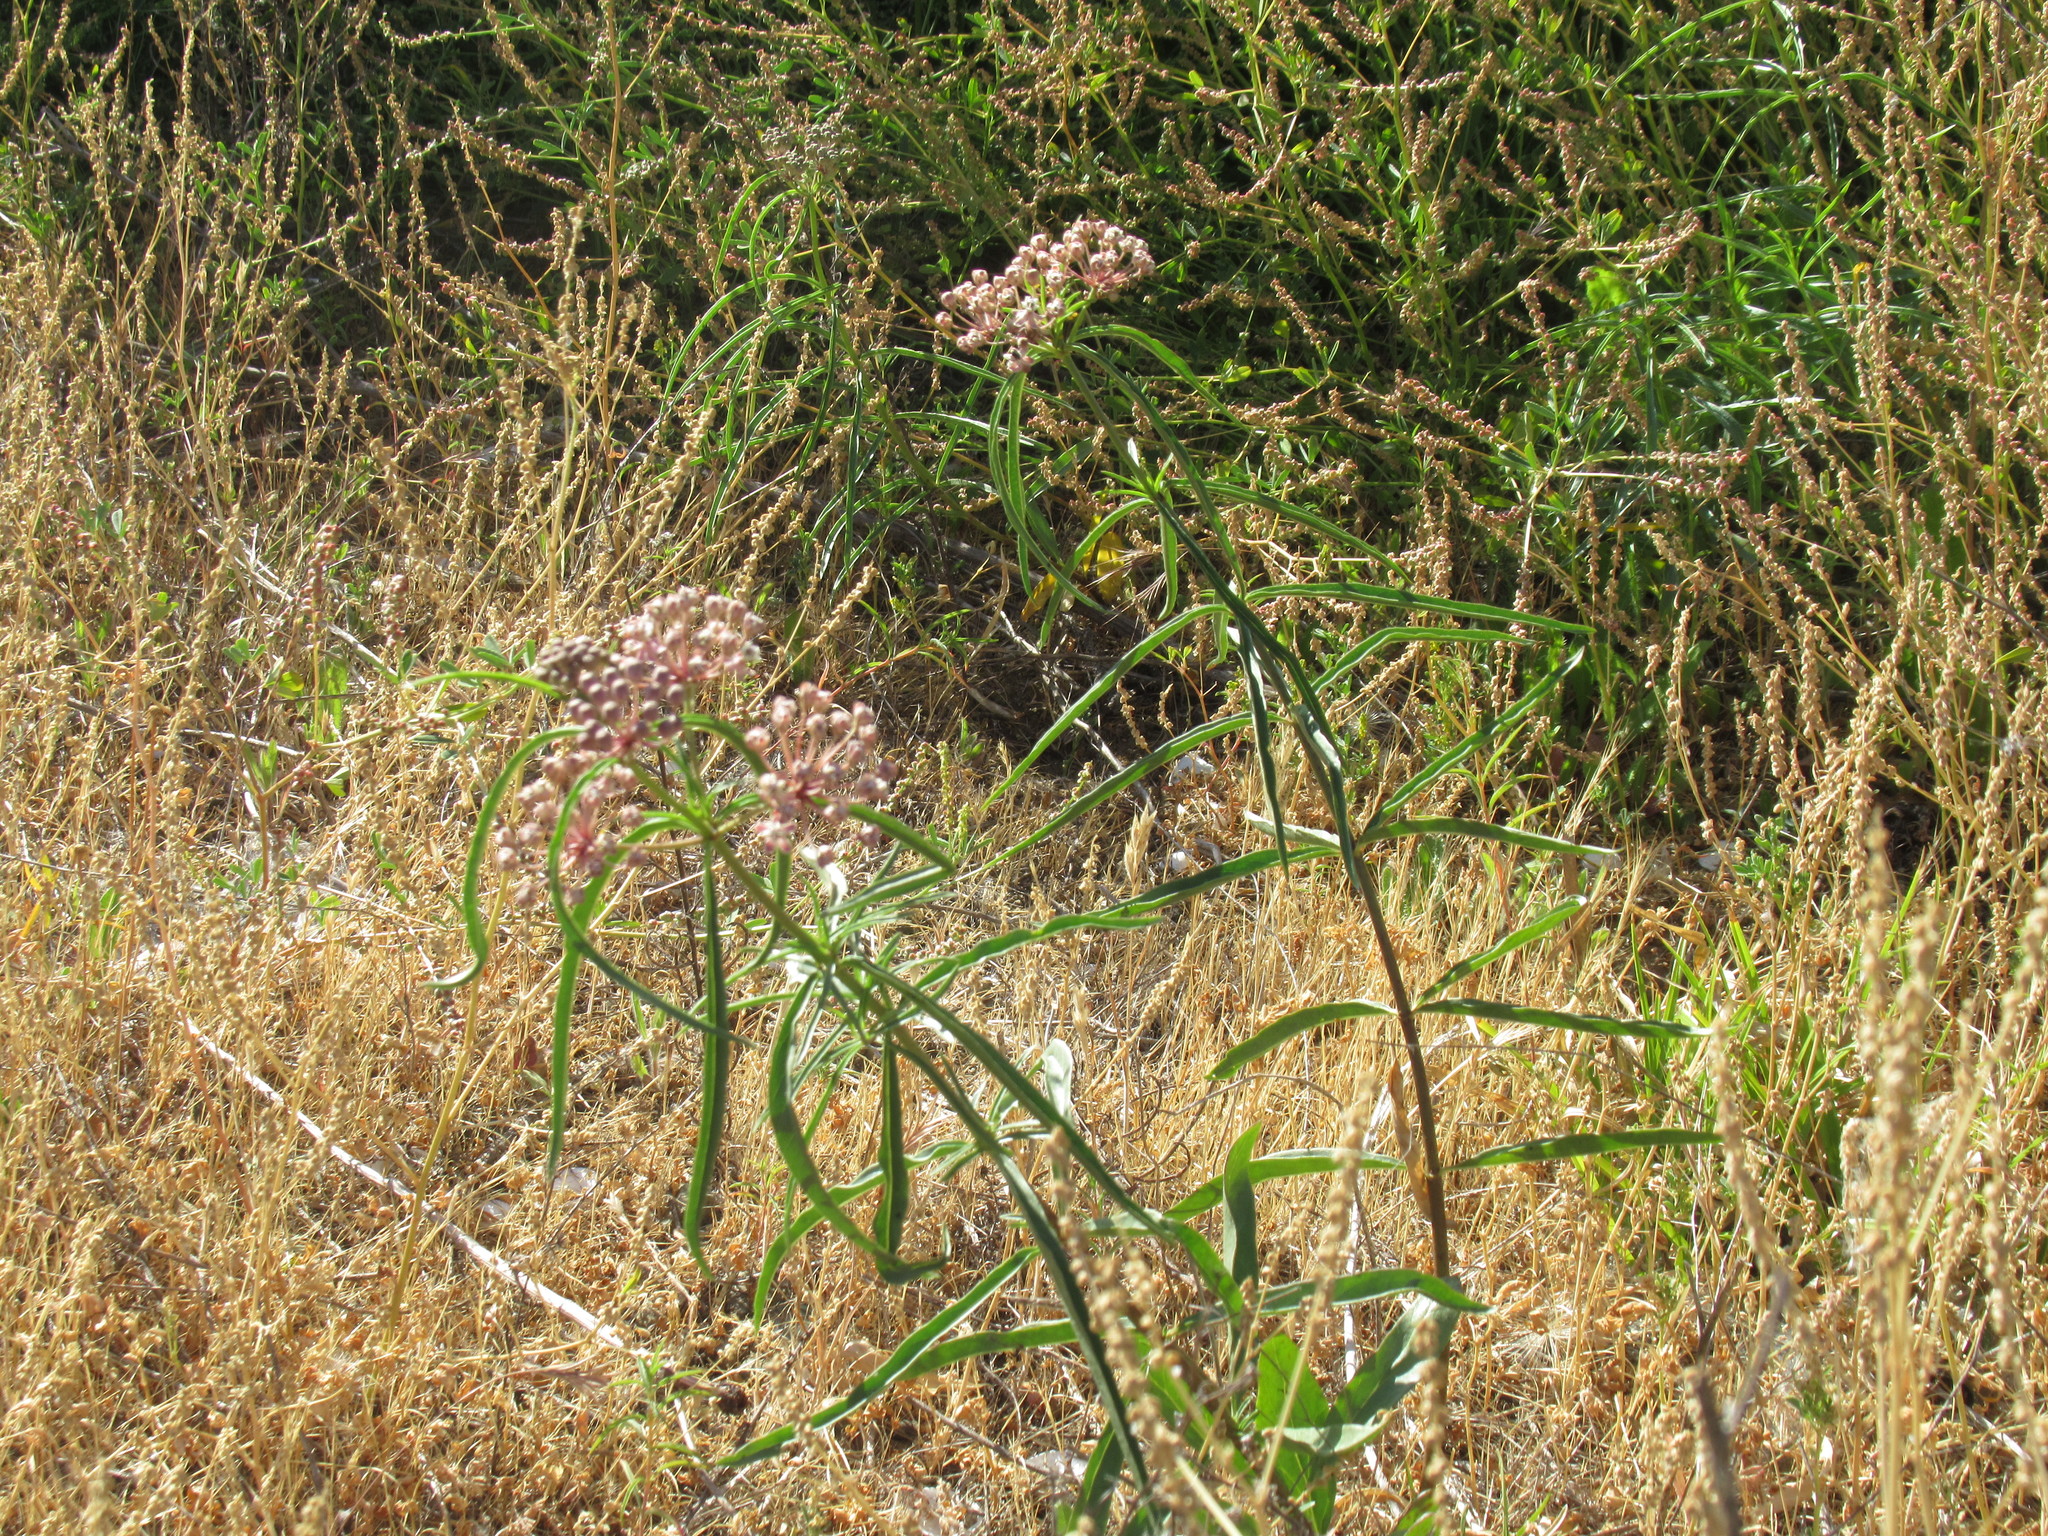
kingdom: Plantae
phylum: Tracheophyta
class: Magnoliopsida
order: Gentianales
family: Apocynaceae
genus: Asclepias
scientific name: Asclepias fascicularis
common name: Mexican milkweed
